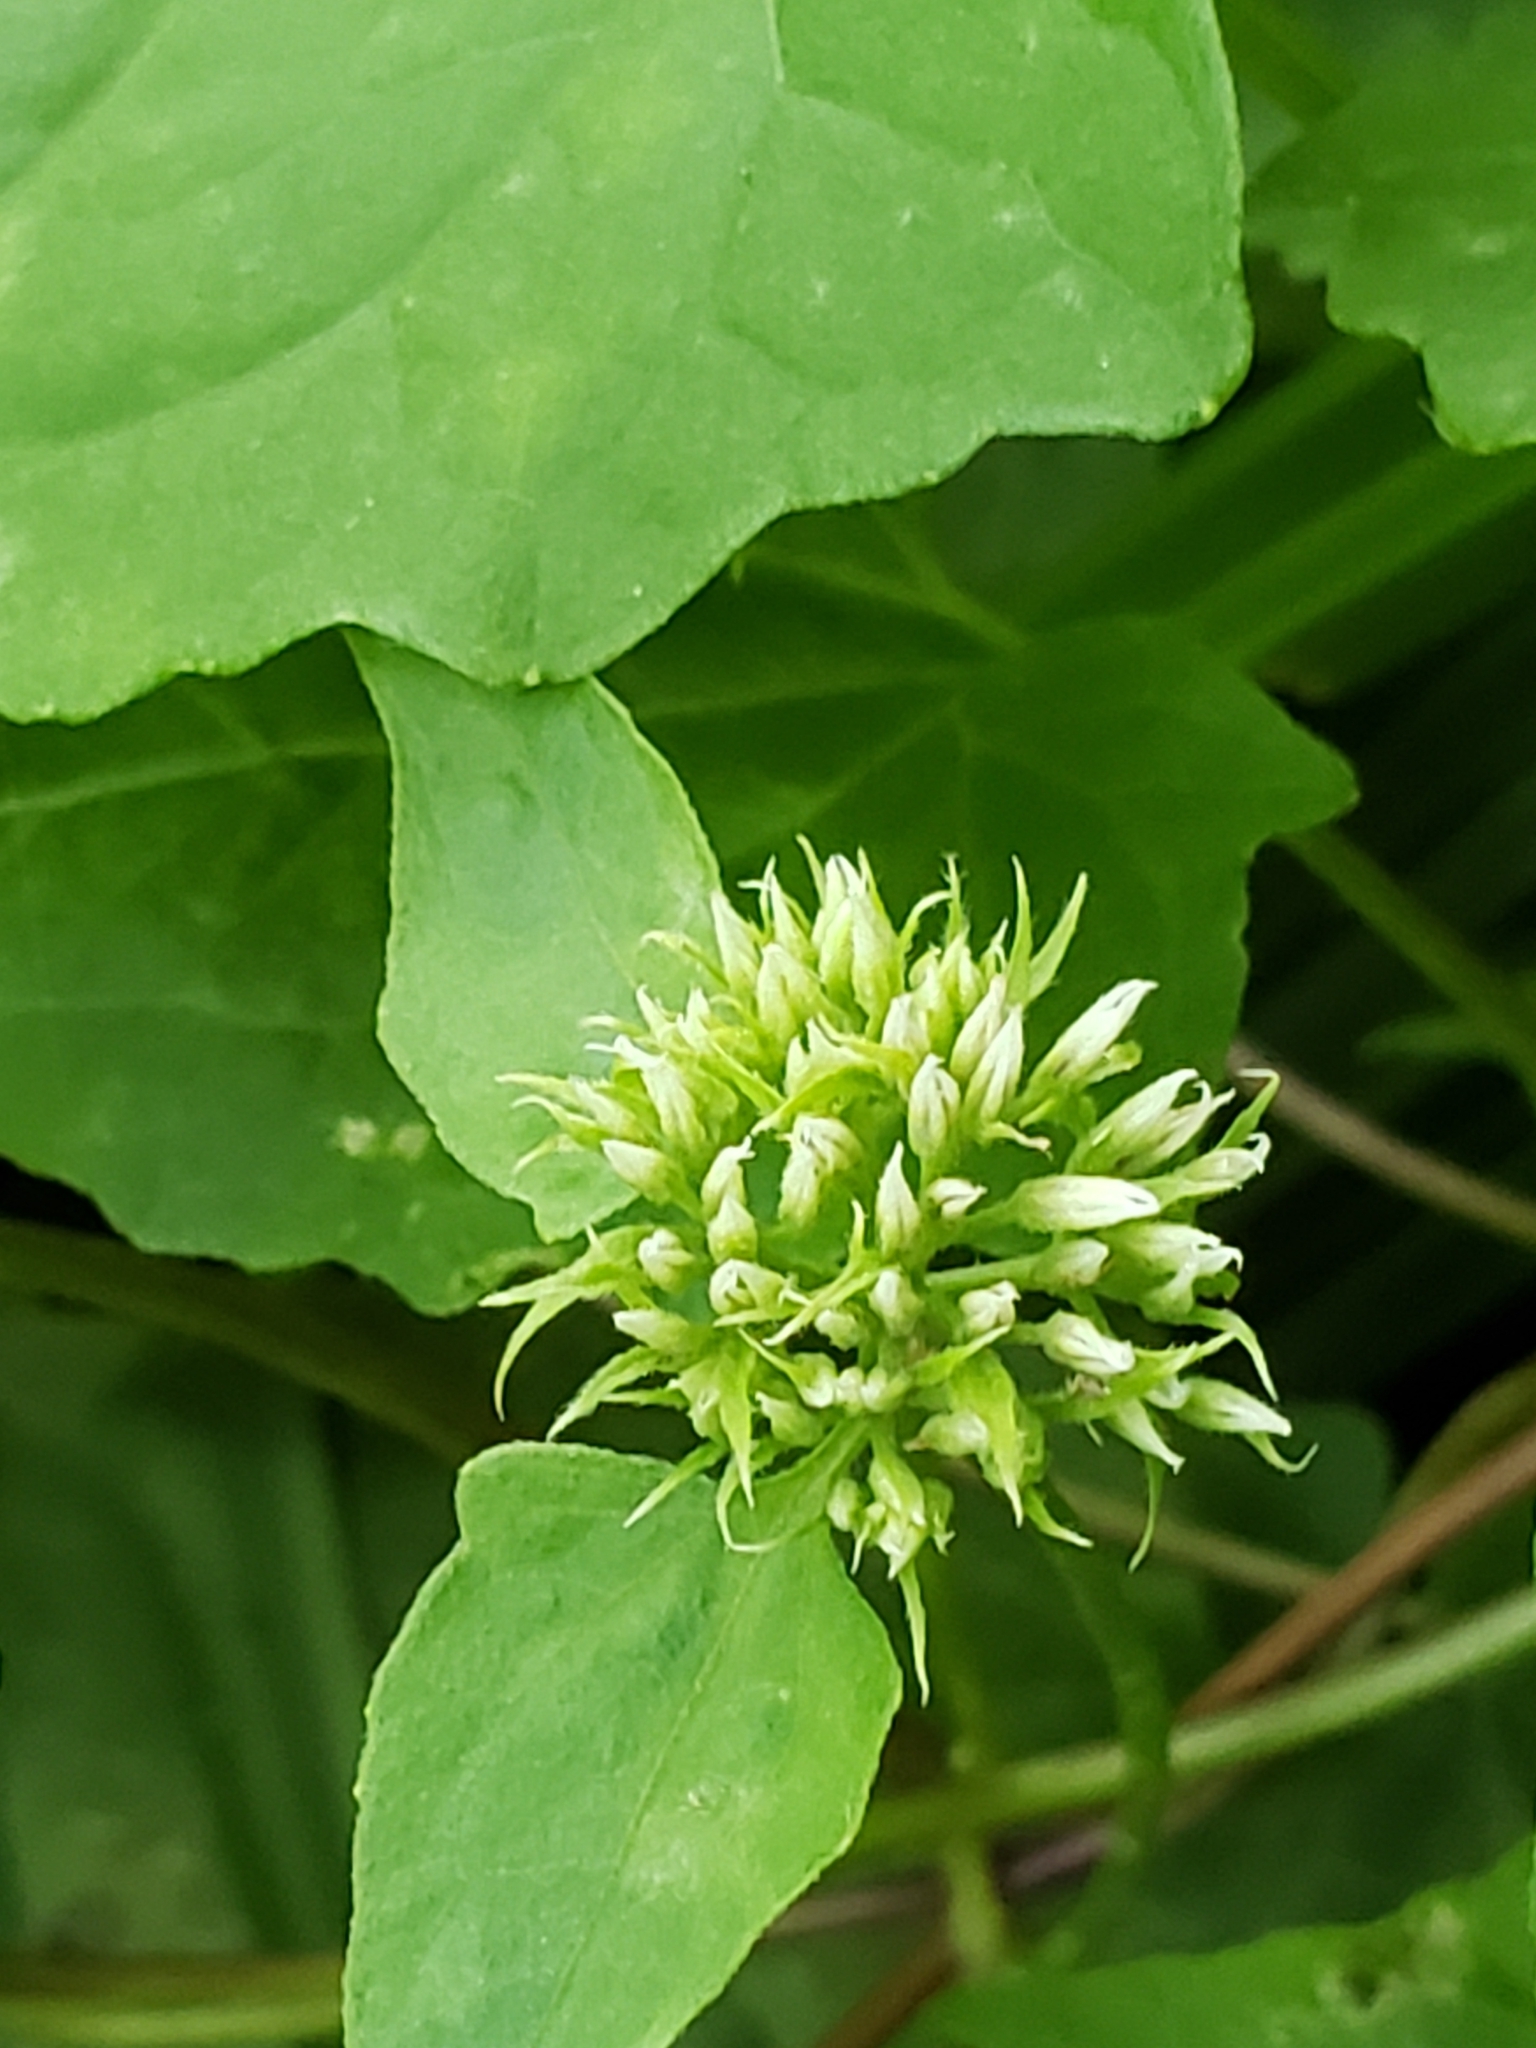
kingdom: Animalia
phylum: Arthropoda
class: Insecta
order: Diptera
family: Agromyzidae
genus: Liriomyza
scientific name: Liriomyza carphephori
